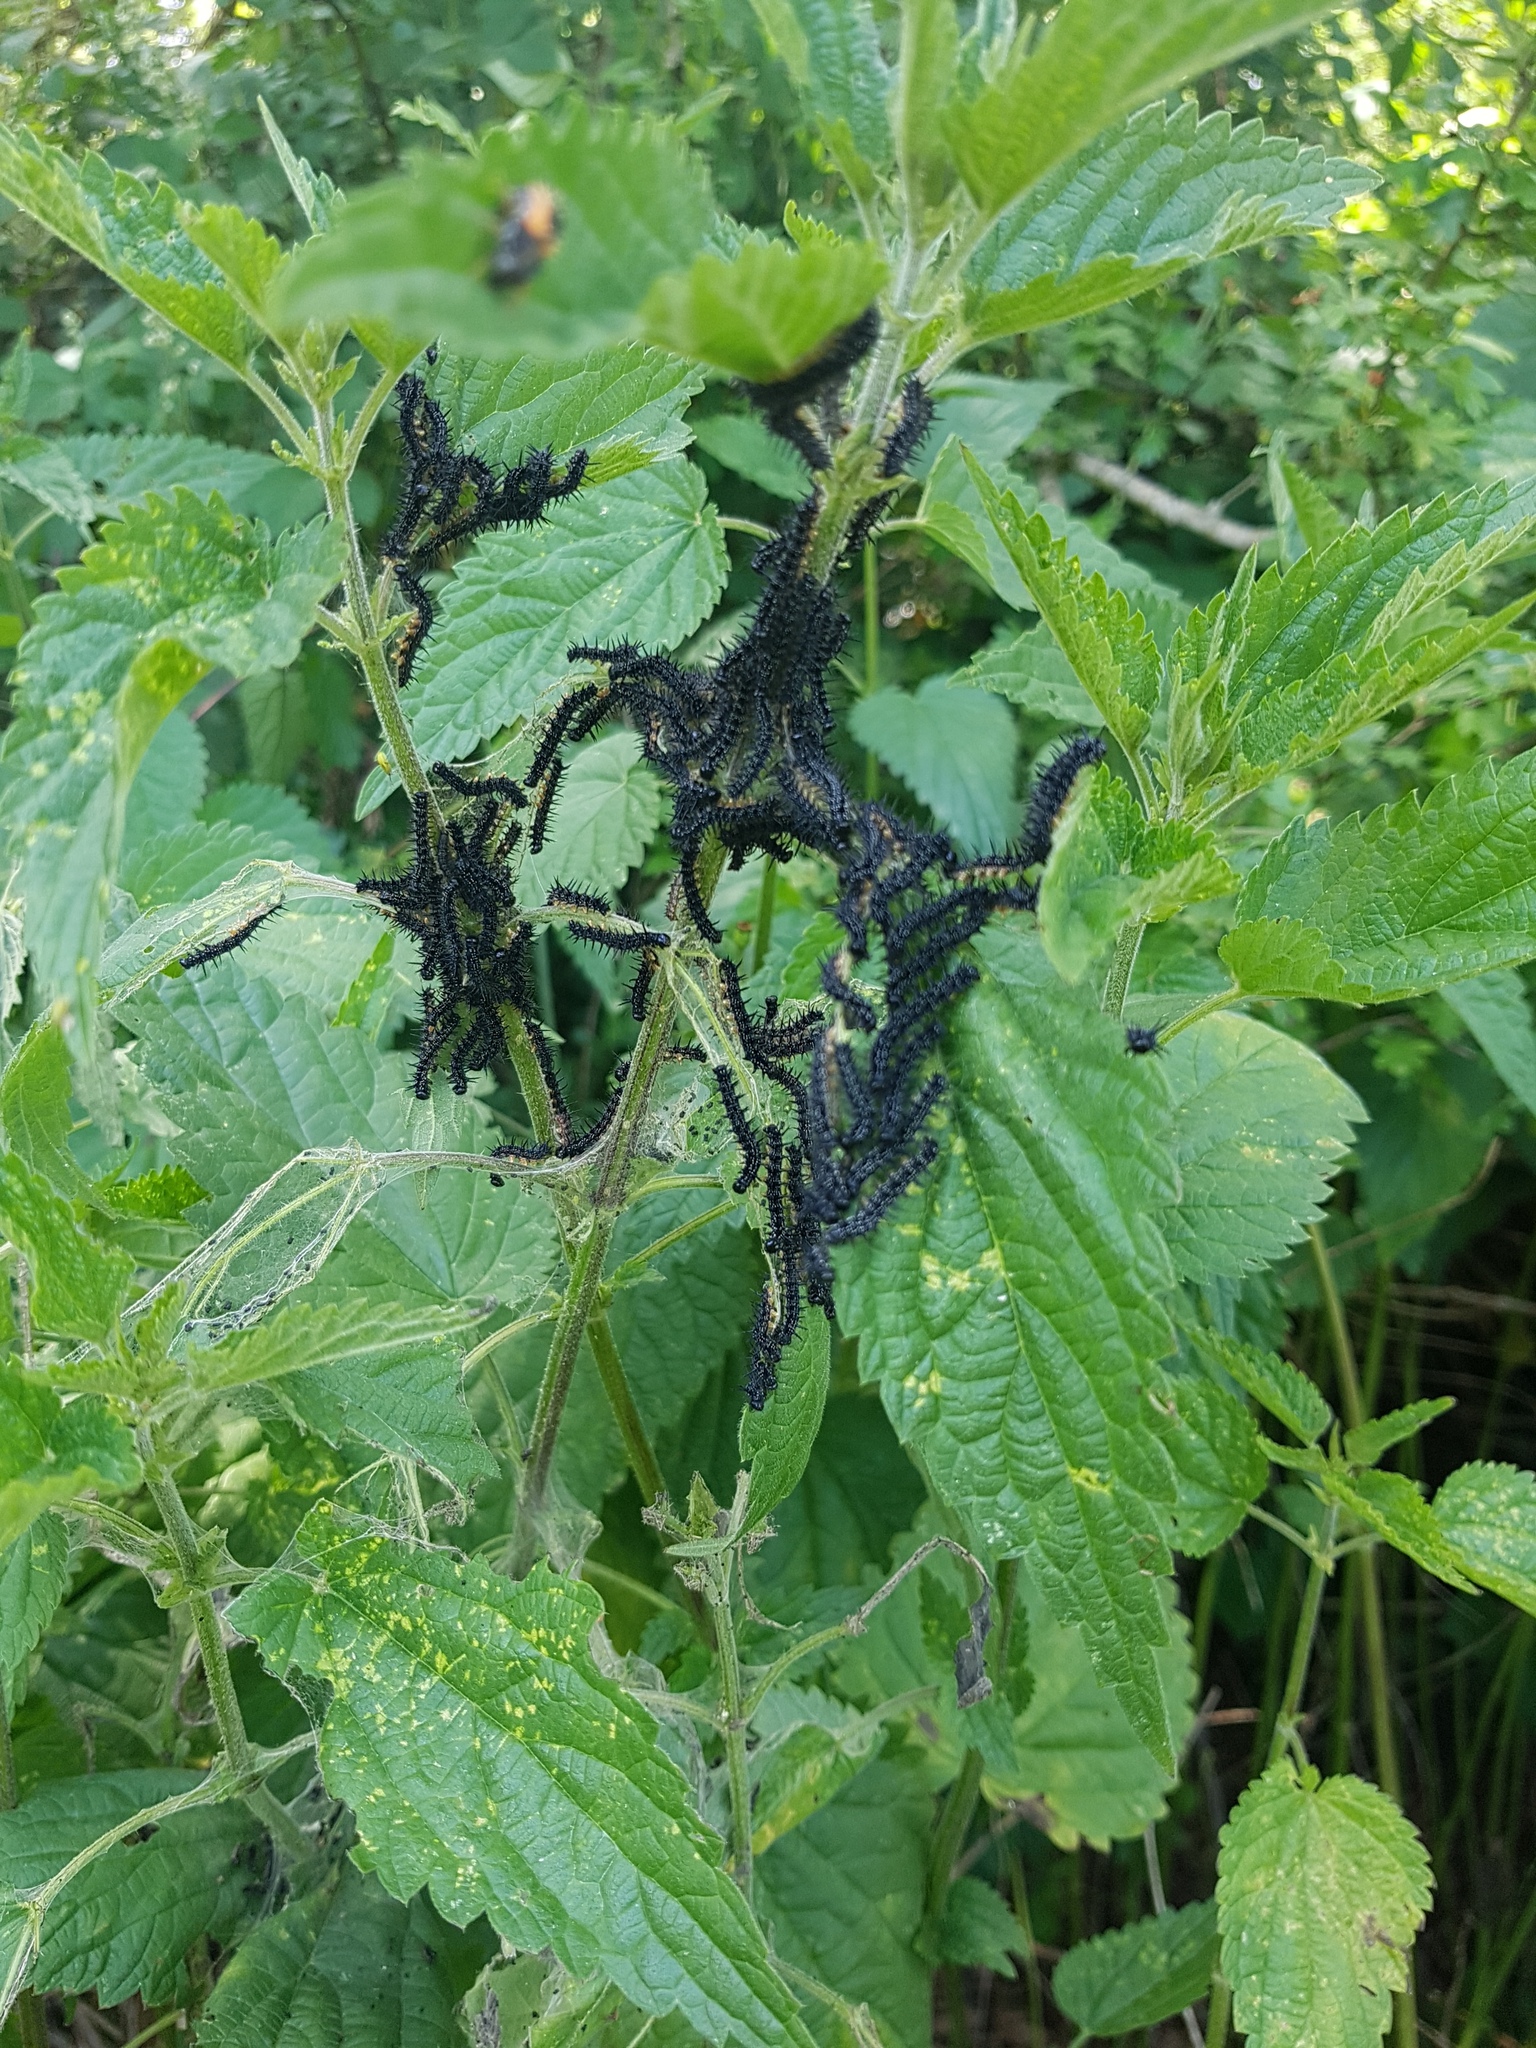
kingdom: Animalia
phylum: Arthropoda
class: Insecta
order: Lepidoptera
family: Nymphalidae
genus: Aglais
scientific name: Aglais io
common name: Peacock
